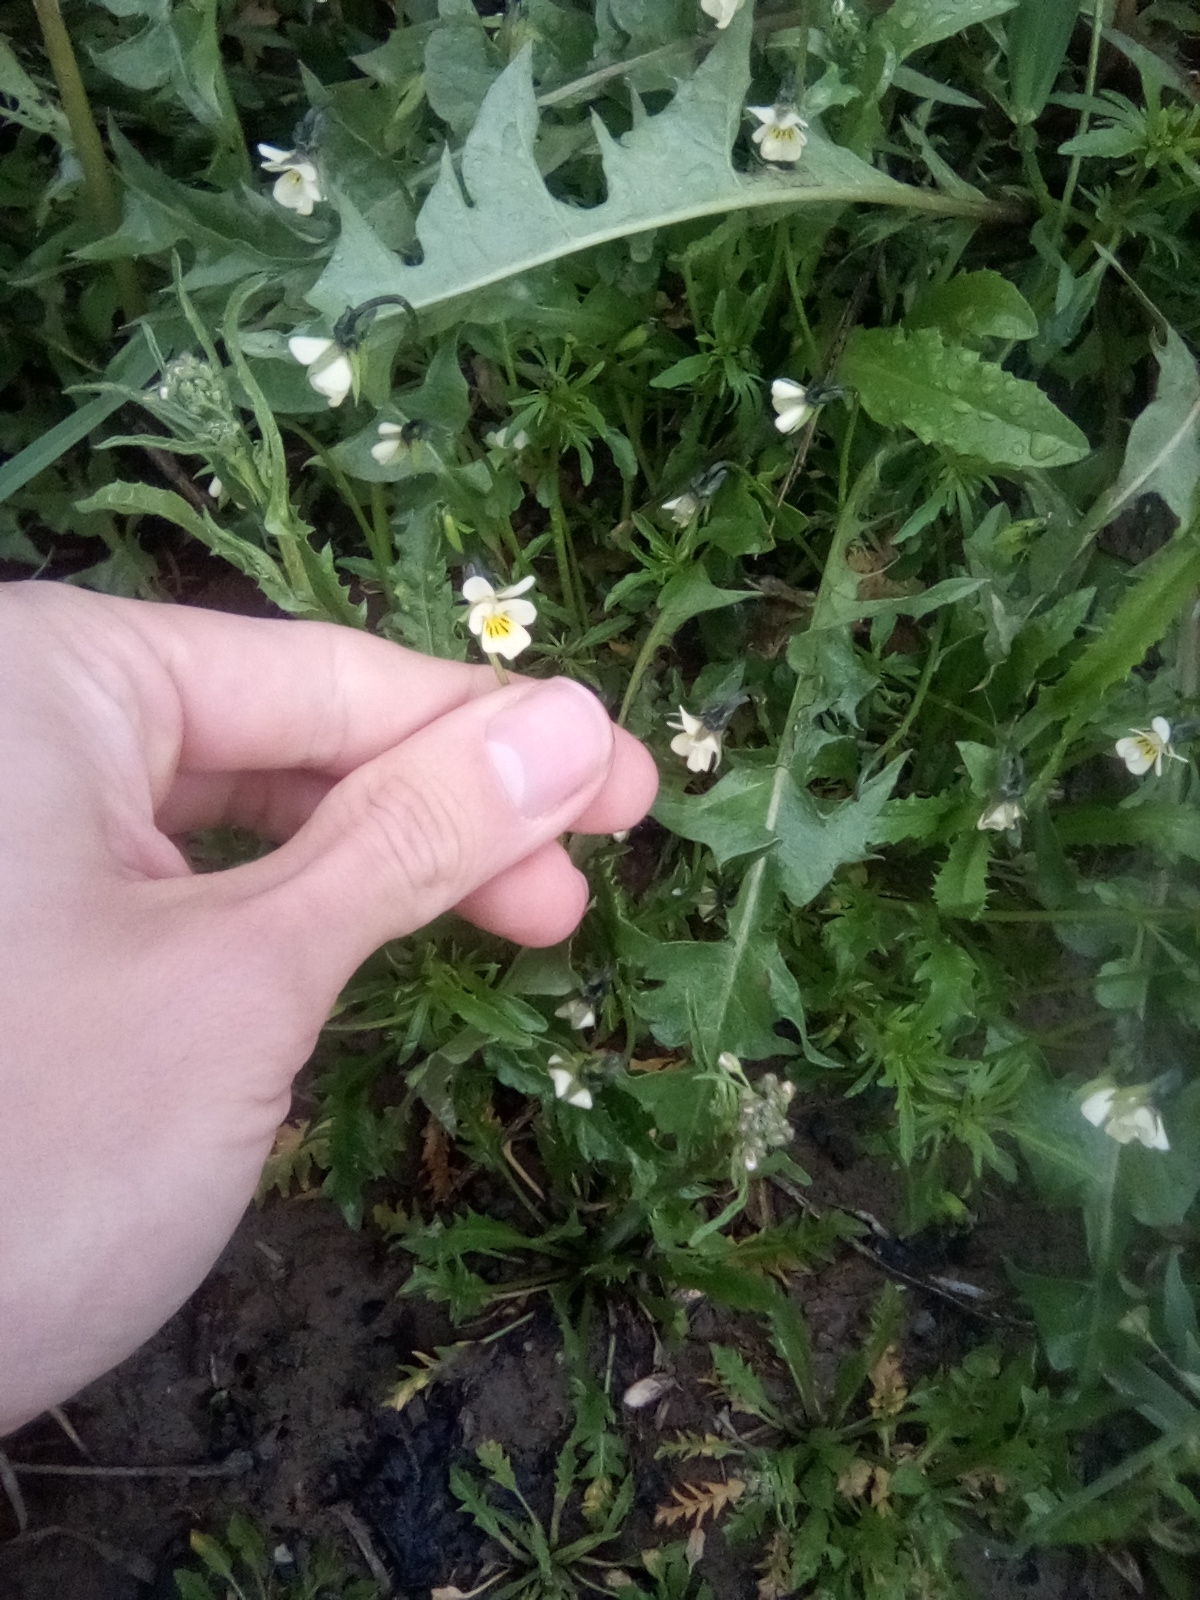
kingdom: Plantae
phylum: Tracheophyta
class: Magnoliopsida
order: Malpighiales
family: Violaceae
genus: Viola
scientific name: Viola arvensis
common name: Field pansy
